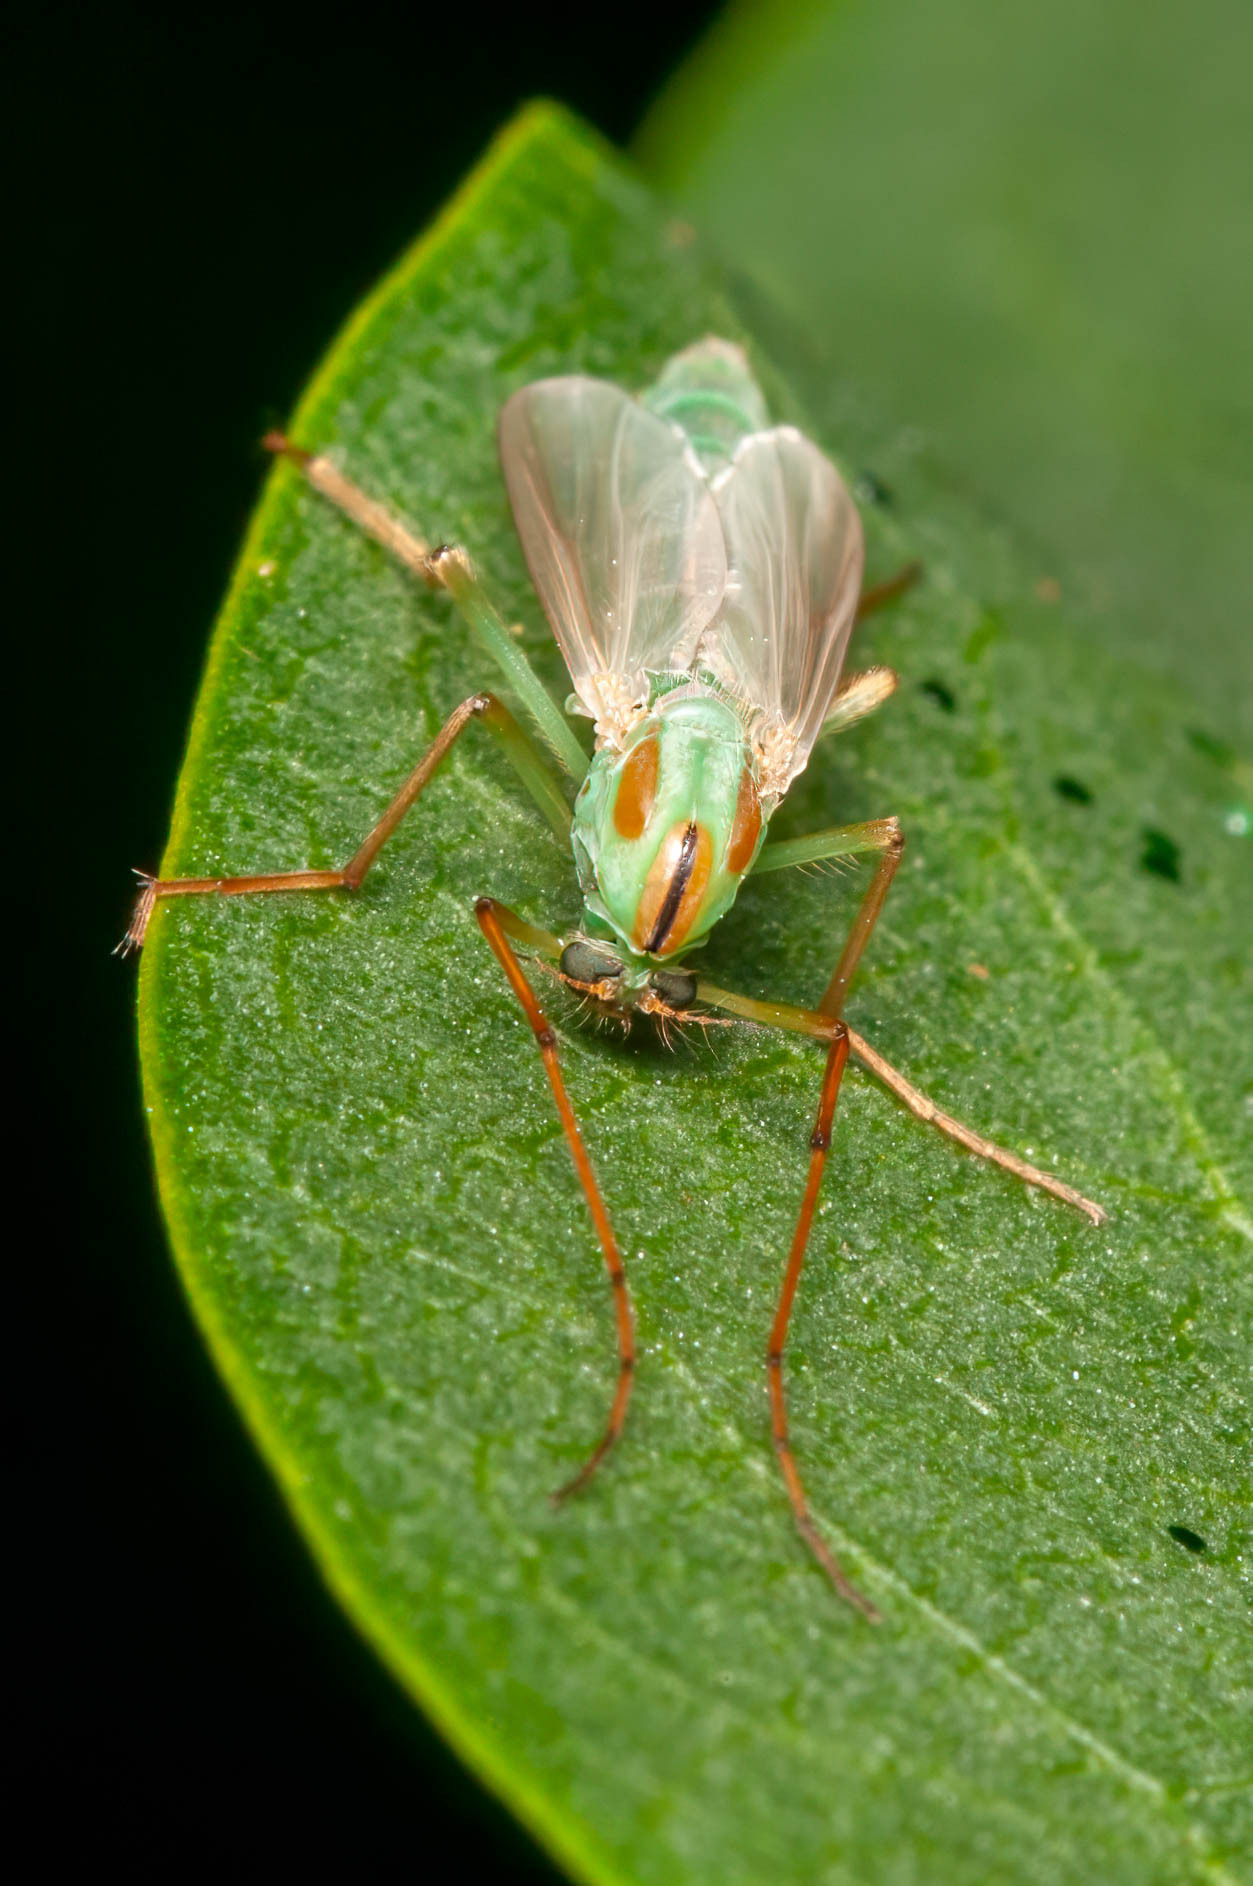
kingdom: Animalia
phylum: Arthropoda
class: Insecta
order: Diptera
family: Chironomidae
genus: Axarus
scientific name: Axarus
